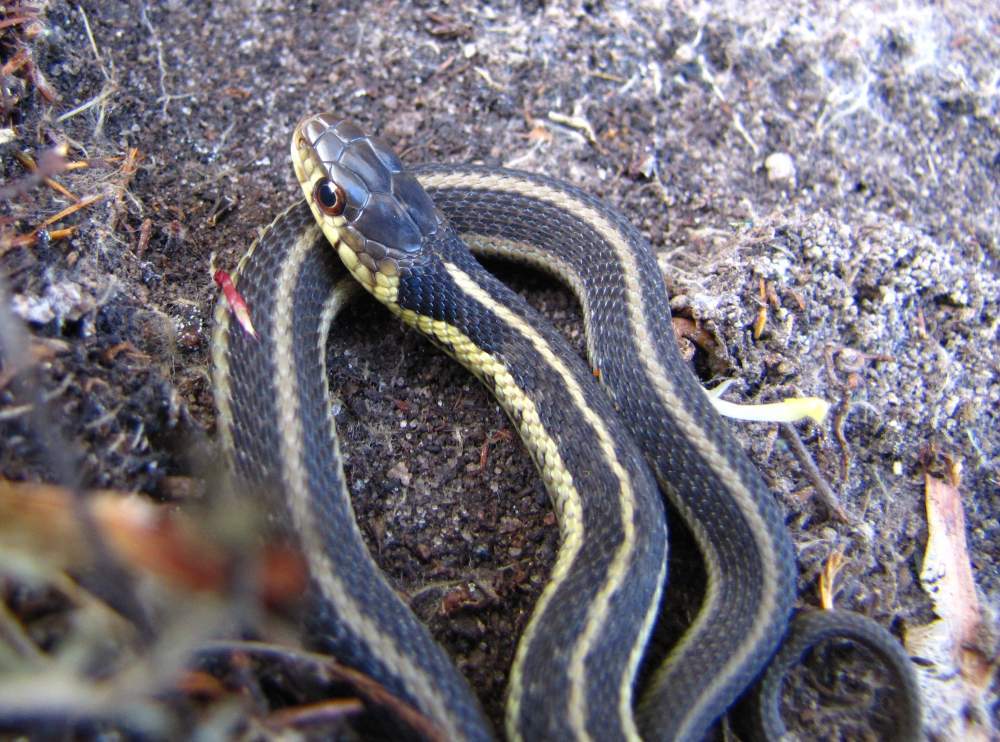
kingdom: Animalia
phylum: Chordata
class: Squamata
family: Colubridae
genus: Thamnophis
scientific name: Thamnophis sirtalis
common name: Common garter snake
